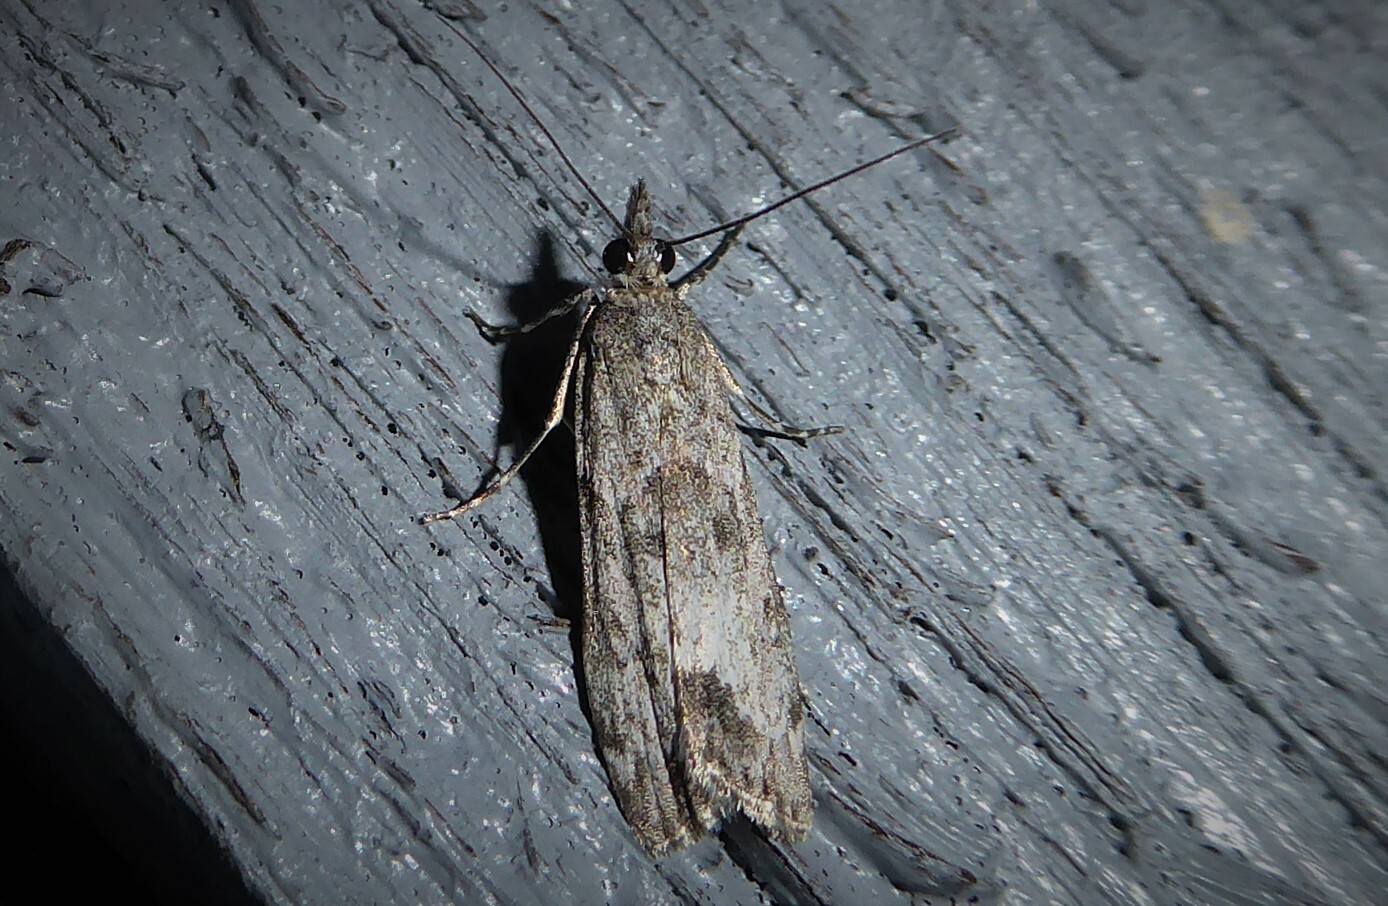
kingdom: Animalia
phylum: Arthropoda
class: Insecta
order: Lepidoptera
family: Crambidae
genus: Eudonia
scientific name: Eudonia rakaiensis
